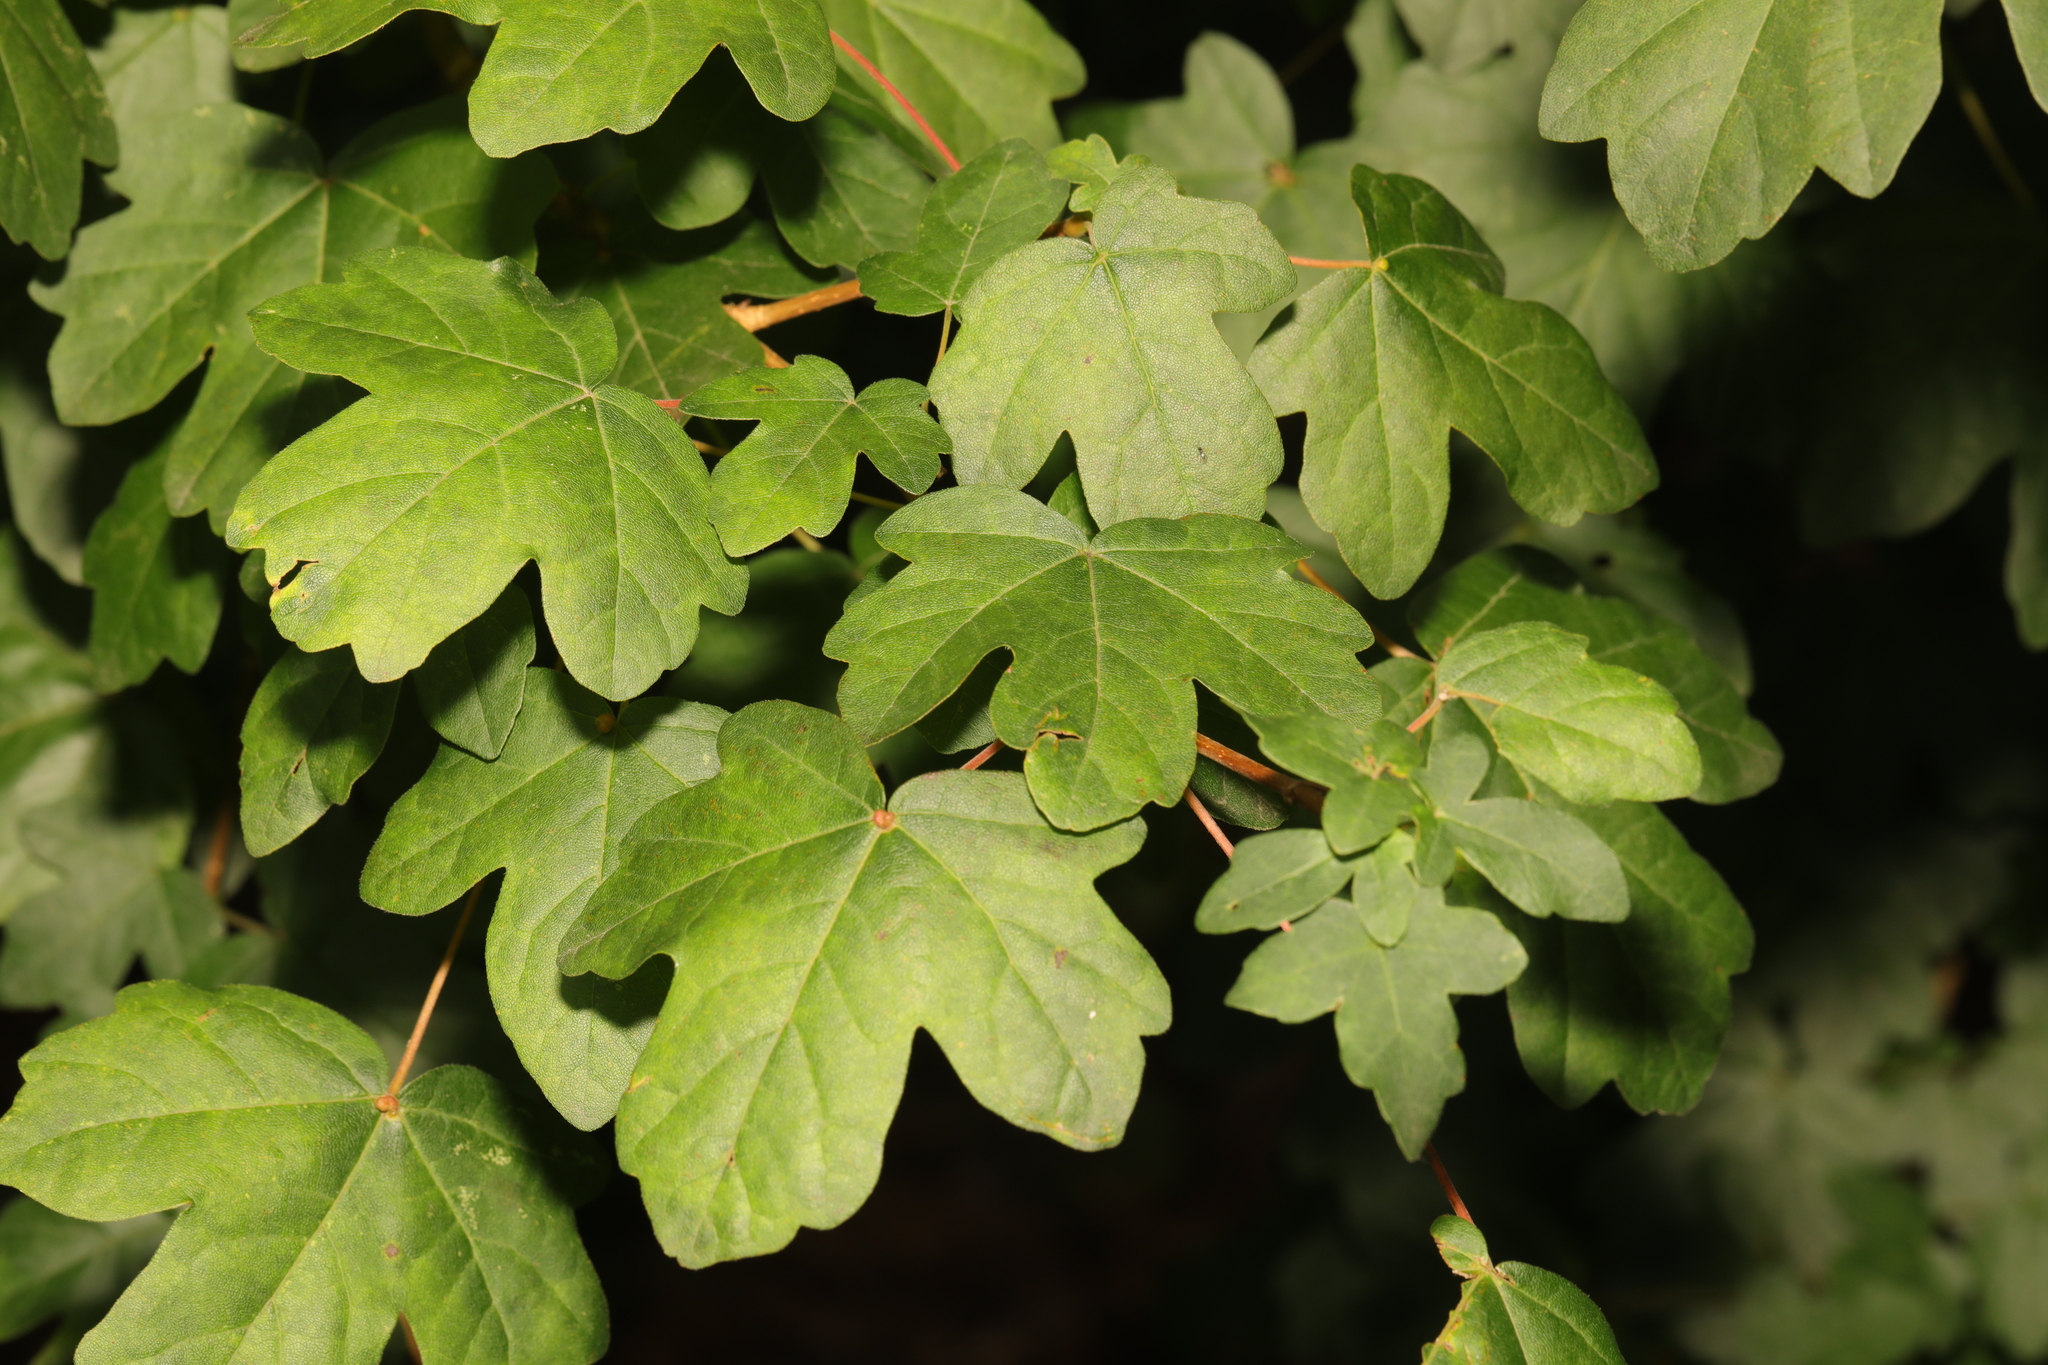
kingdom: Plantae
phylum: Tracheophyta
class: Magnoliopsida
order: Sapindales
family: Sapindaceae
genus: Acer
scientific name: Acer campestre
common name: Field maple
